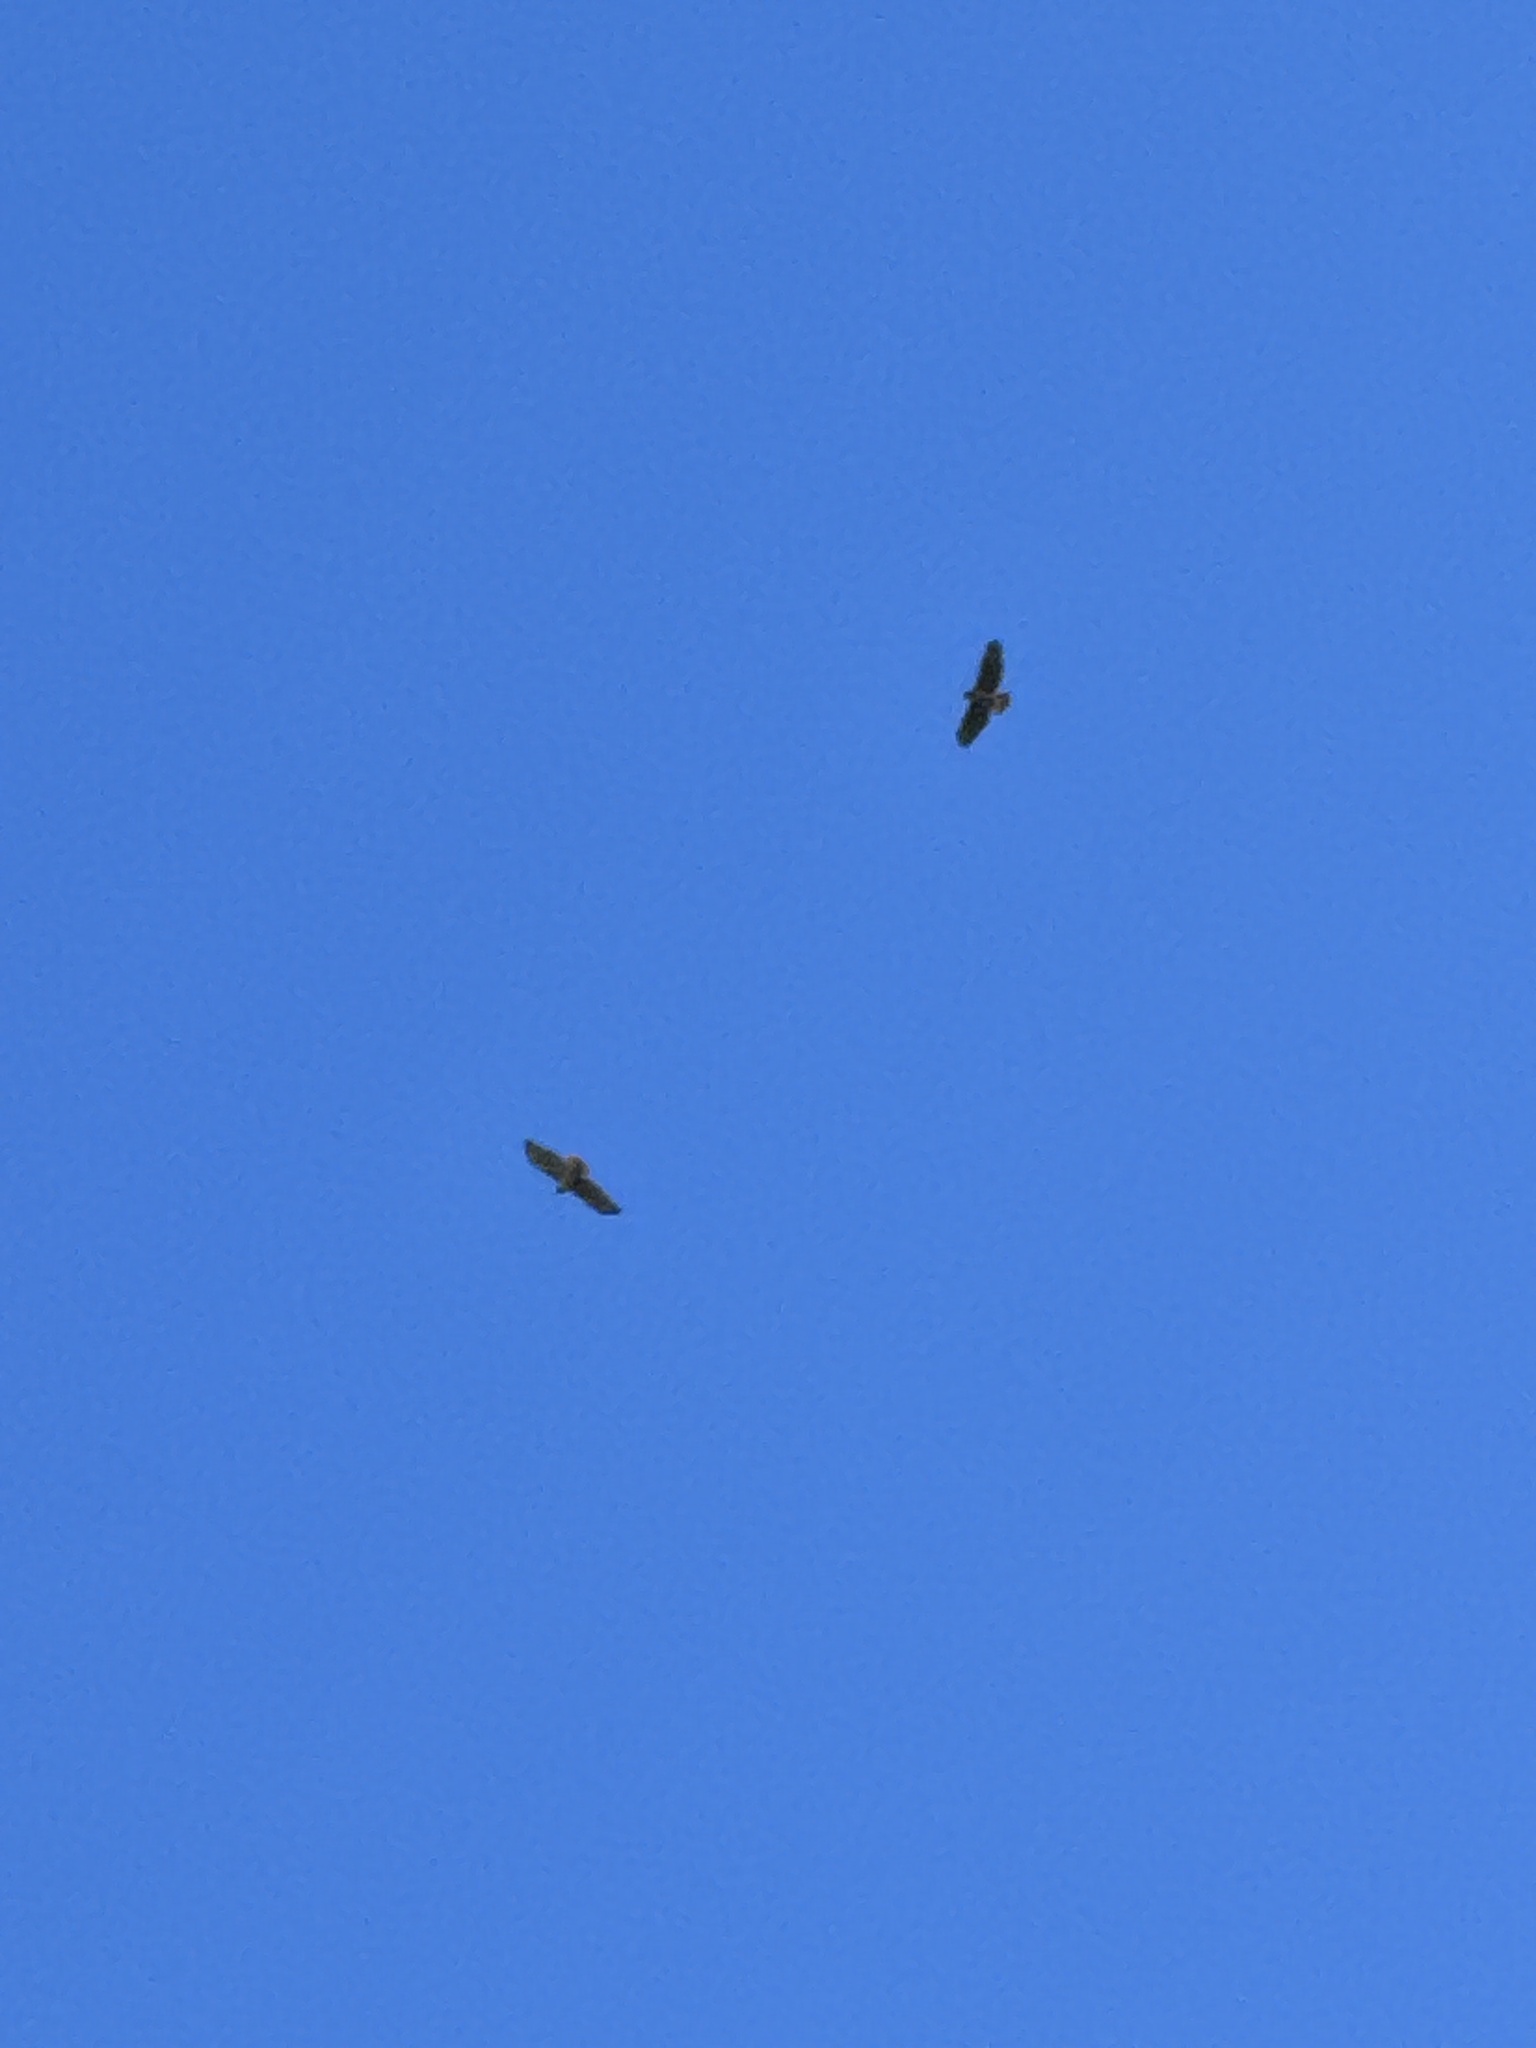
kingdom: Animalia
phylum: Chordata
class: Aves
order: Accipitriformes
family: Accipitridae
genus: Buteo
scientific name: Buteo jamaicensis
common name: Red-tailed hawk
